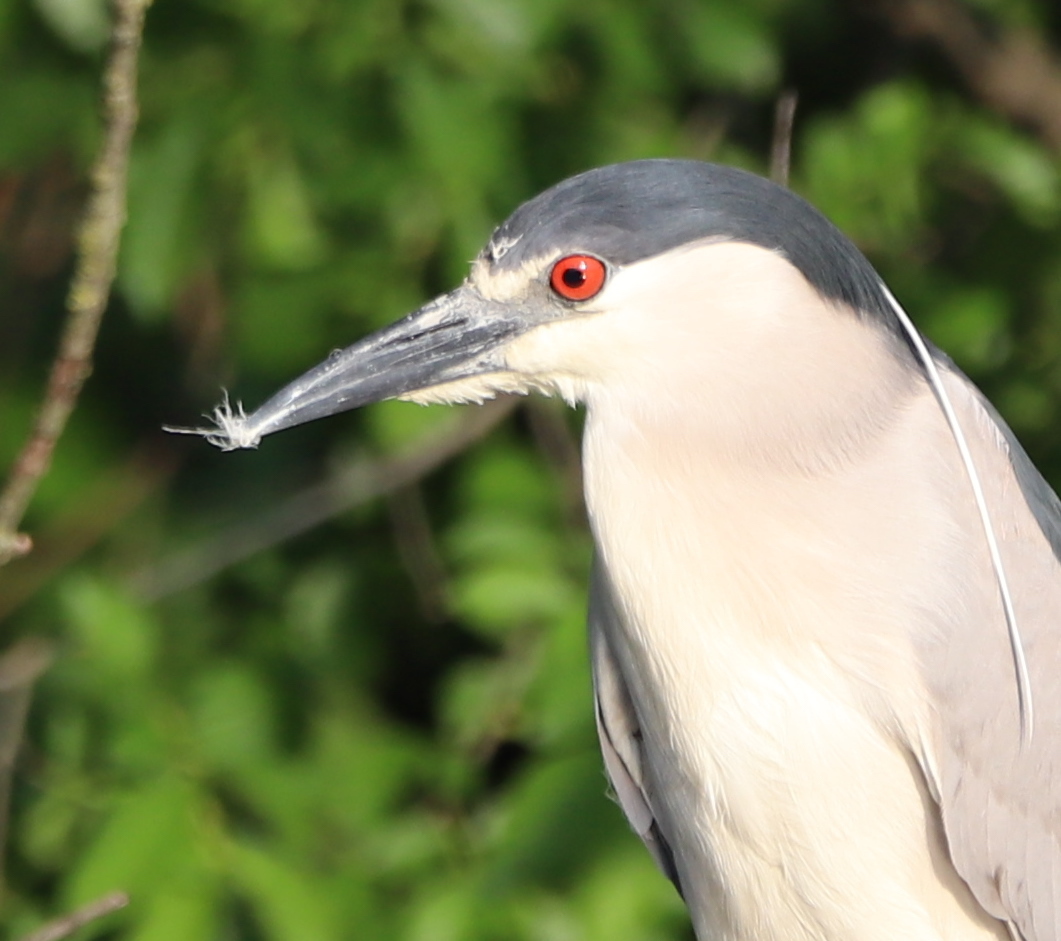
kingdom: Animalia
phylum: Chordata
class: Aves
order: Pelecaniformes
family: Ardeidae
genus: Nycticorax
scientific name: Nycticorax nycticorax
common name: Black-crowned night heron
